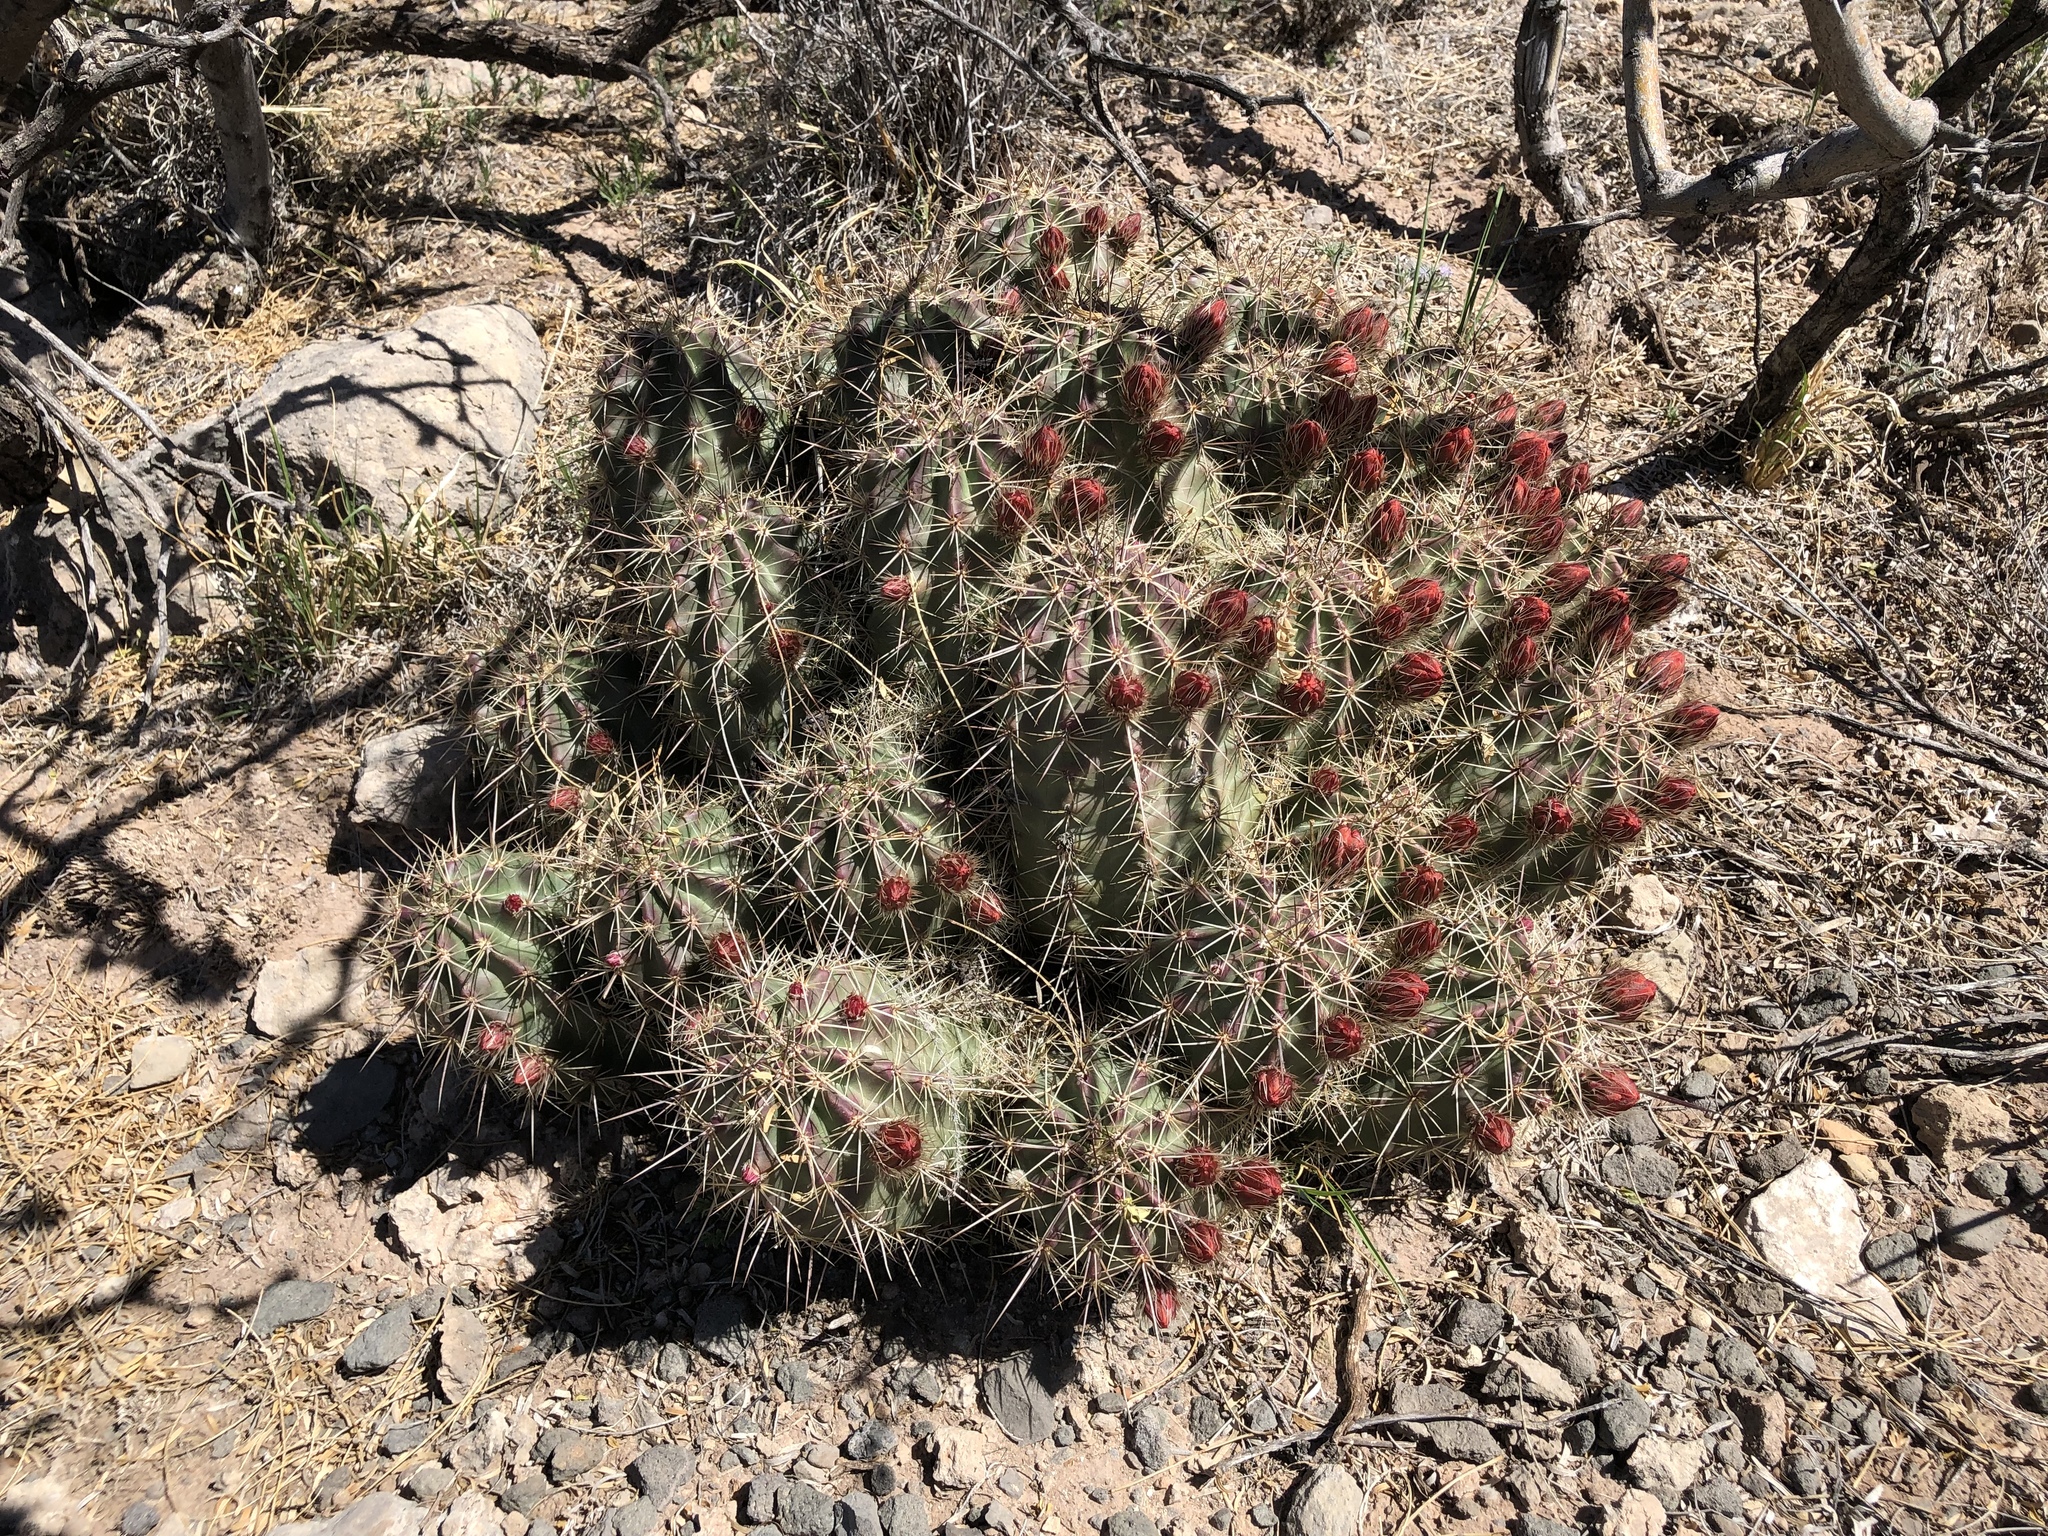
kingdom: Plantae
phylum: Tracheophyta
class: Magnoliopsida
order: Caryophyllales
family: Cactaceae
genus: Echinocereus
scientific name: Echinocereus coccineus
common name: Scarlet hedgehog cactus
